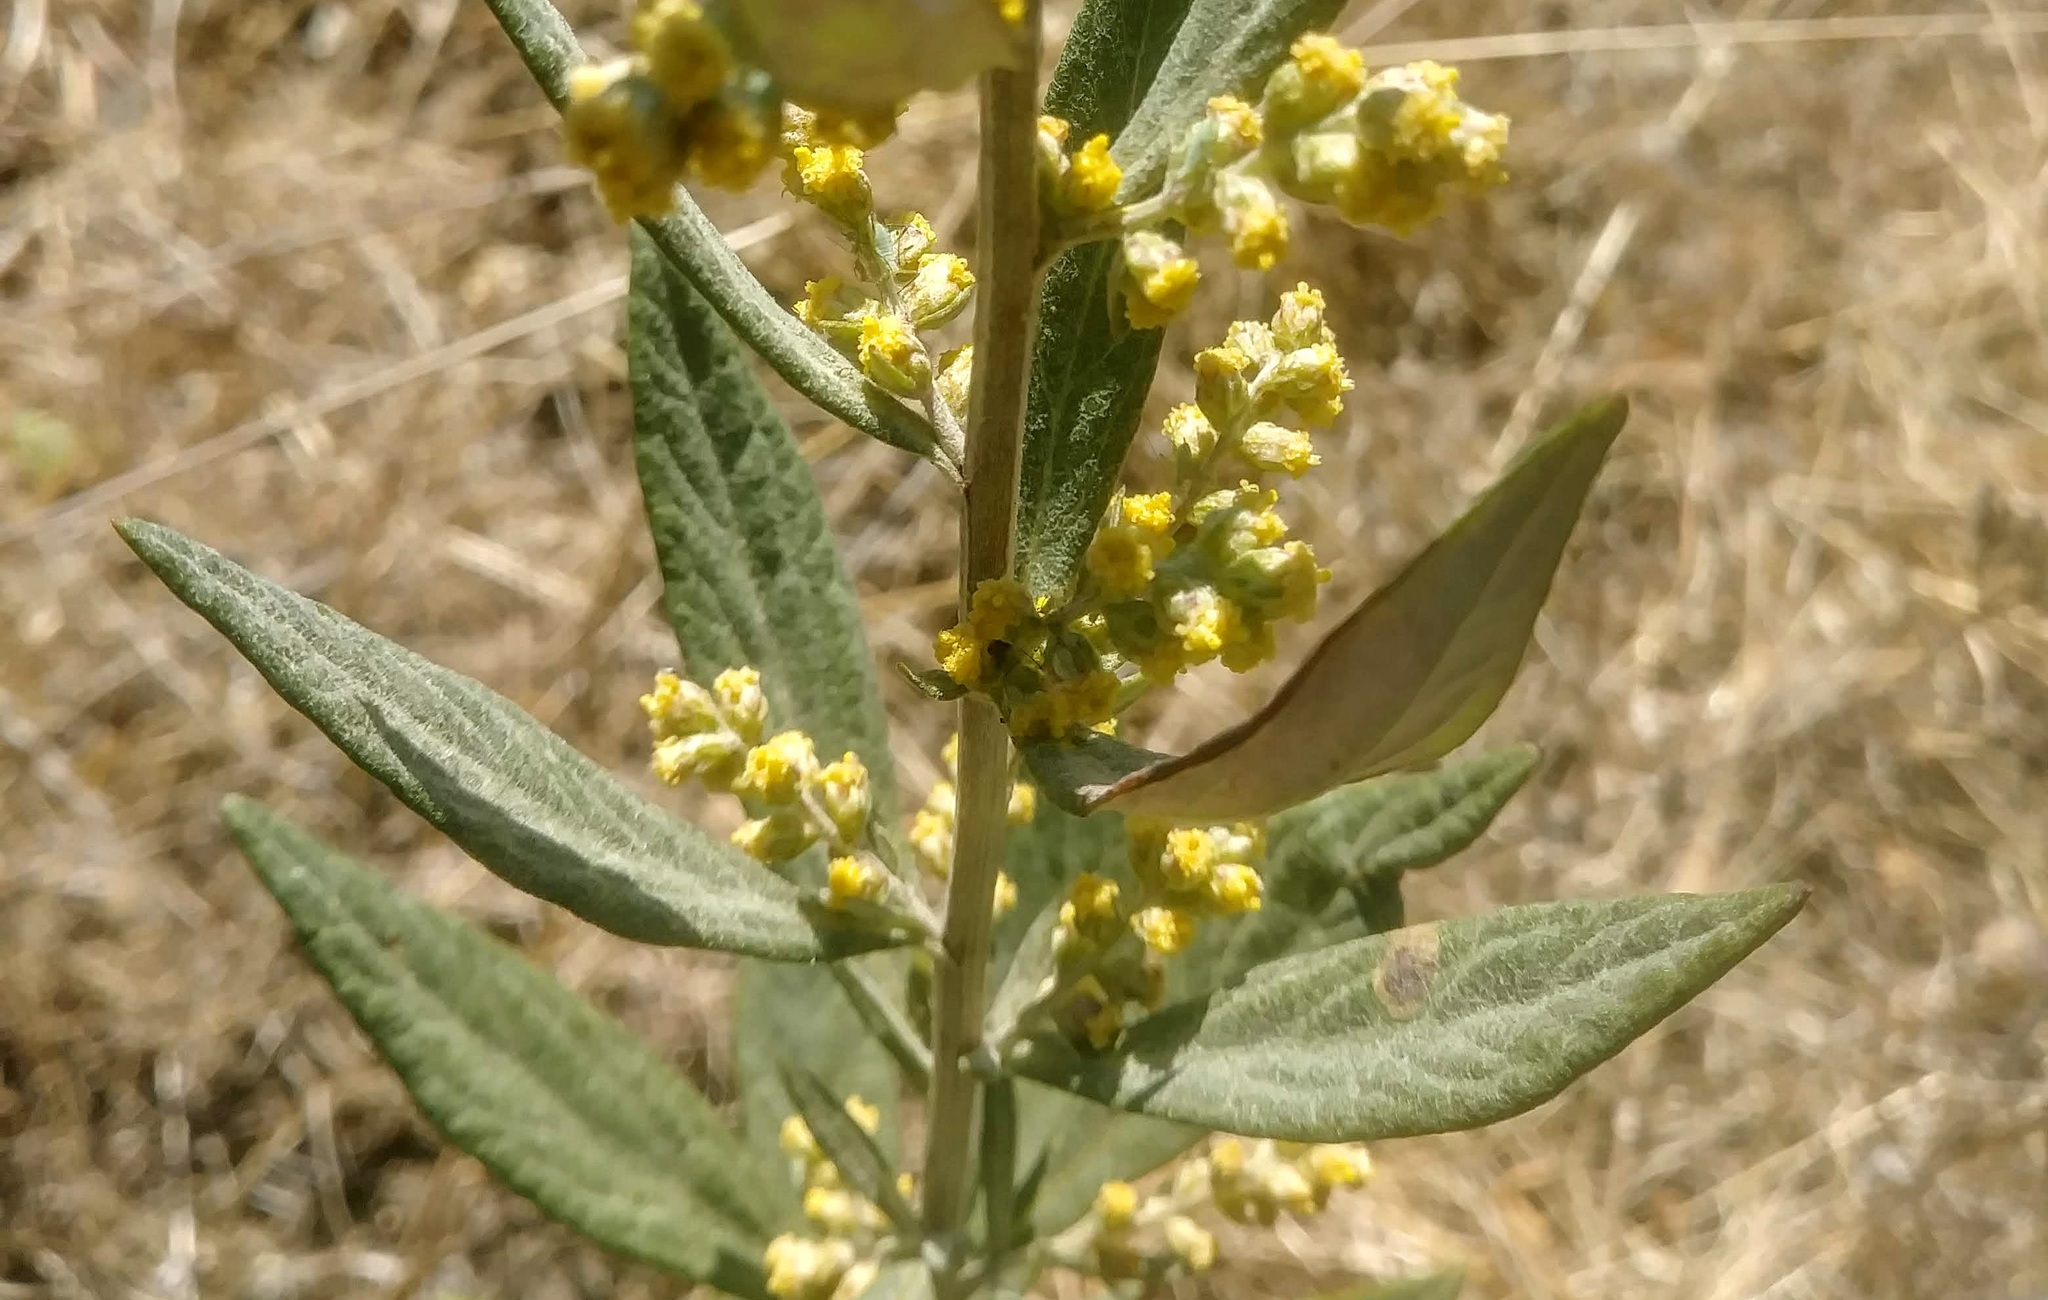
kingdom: Plantae
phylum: Tracheophyta
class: Magnoliopsida
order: Asterales
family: Asteraceae
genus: Artemisia
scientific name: Artemisia douglasiana
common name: Northwest mugwort
